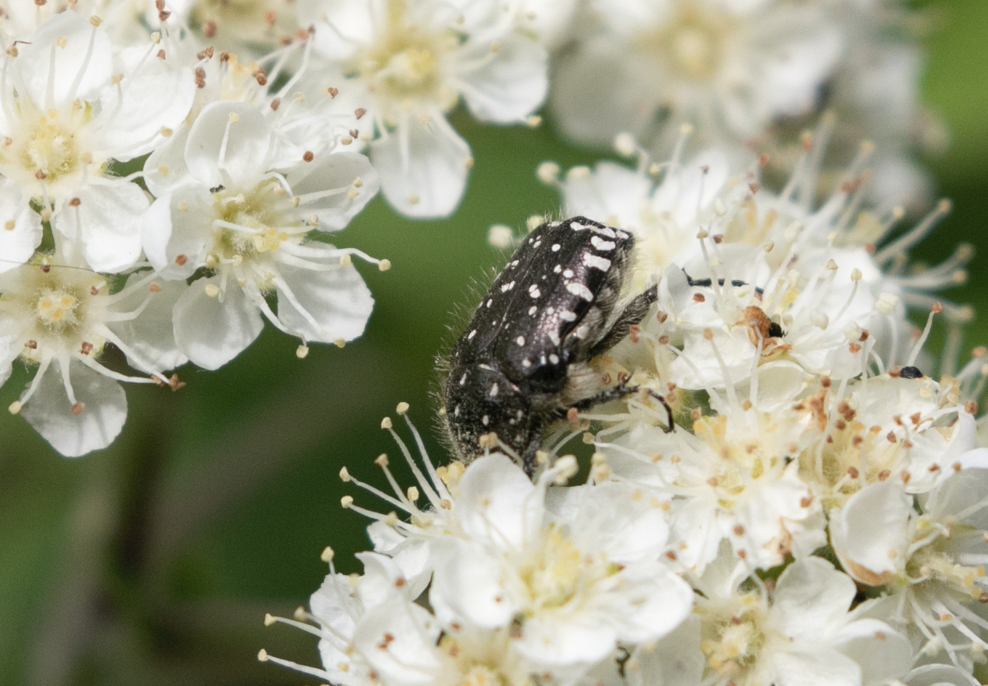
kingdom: Animalia
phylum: Arthropoda
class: Insecta
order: Coleoptera
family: Scarabaeidae
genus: Oxythyrea
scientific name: Oxythyrea funesta
